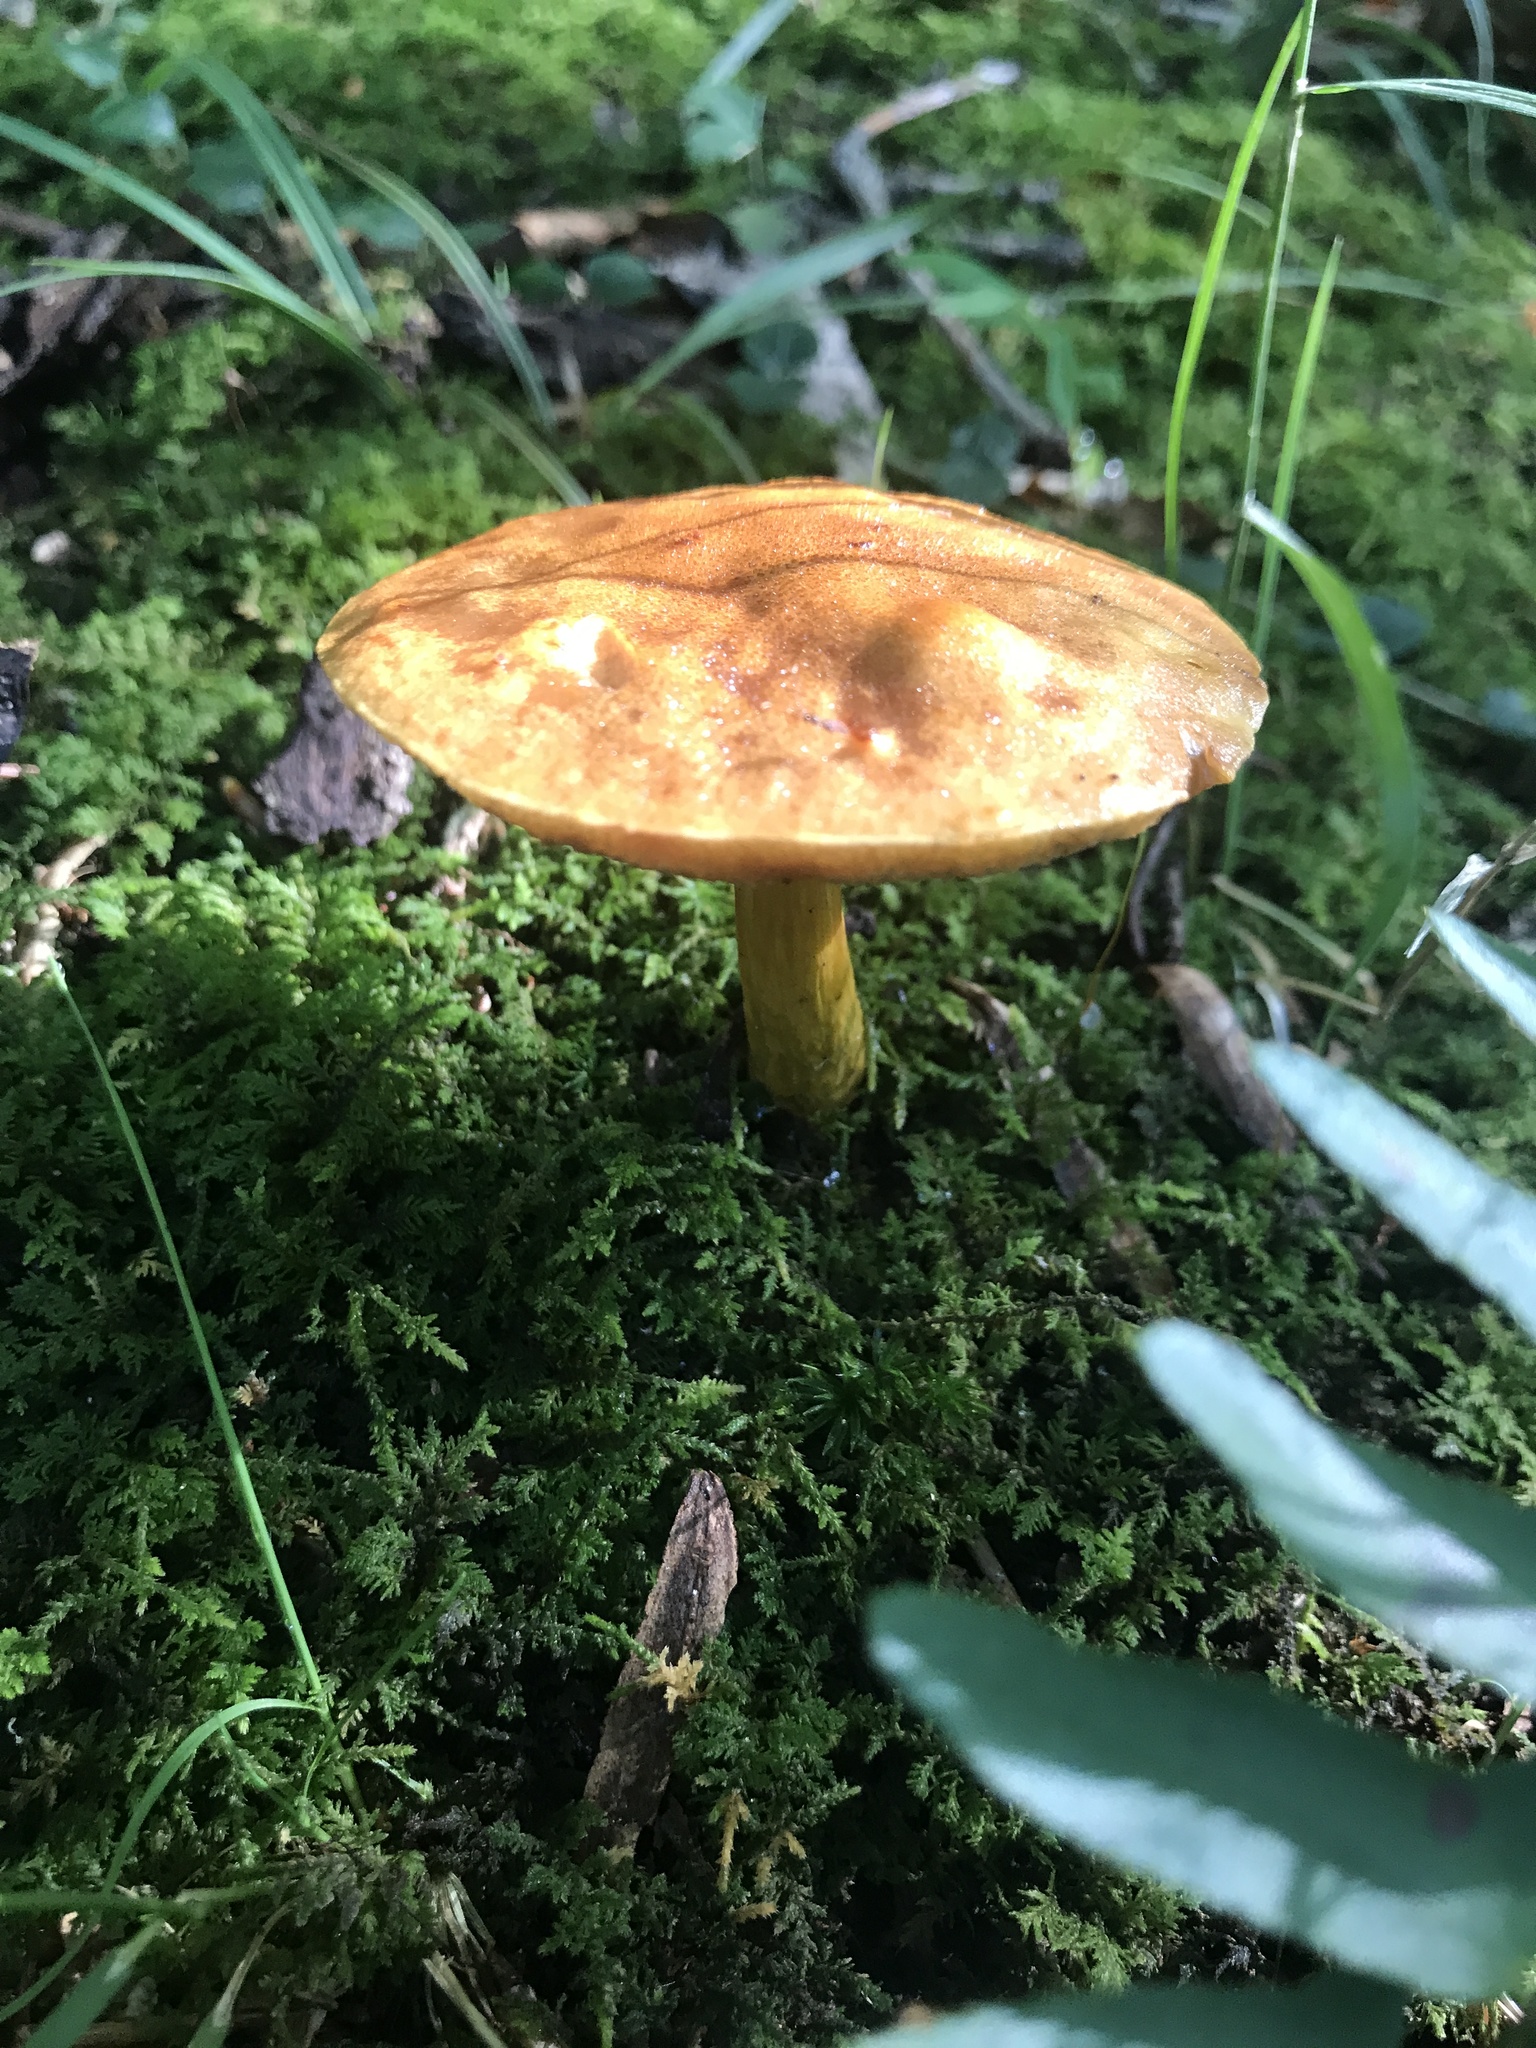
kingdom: Fungi
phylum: Basidiomycota
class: Agaricomycetes
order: Boletales
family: Boletaceae
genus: Aureoboletus
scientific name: Aureoboletus roxanae
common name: Roxane's bolete
